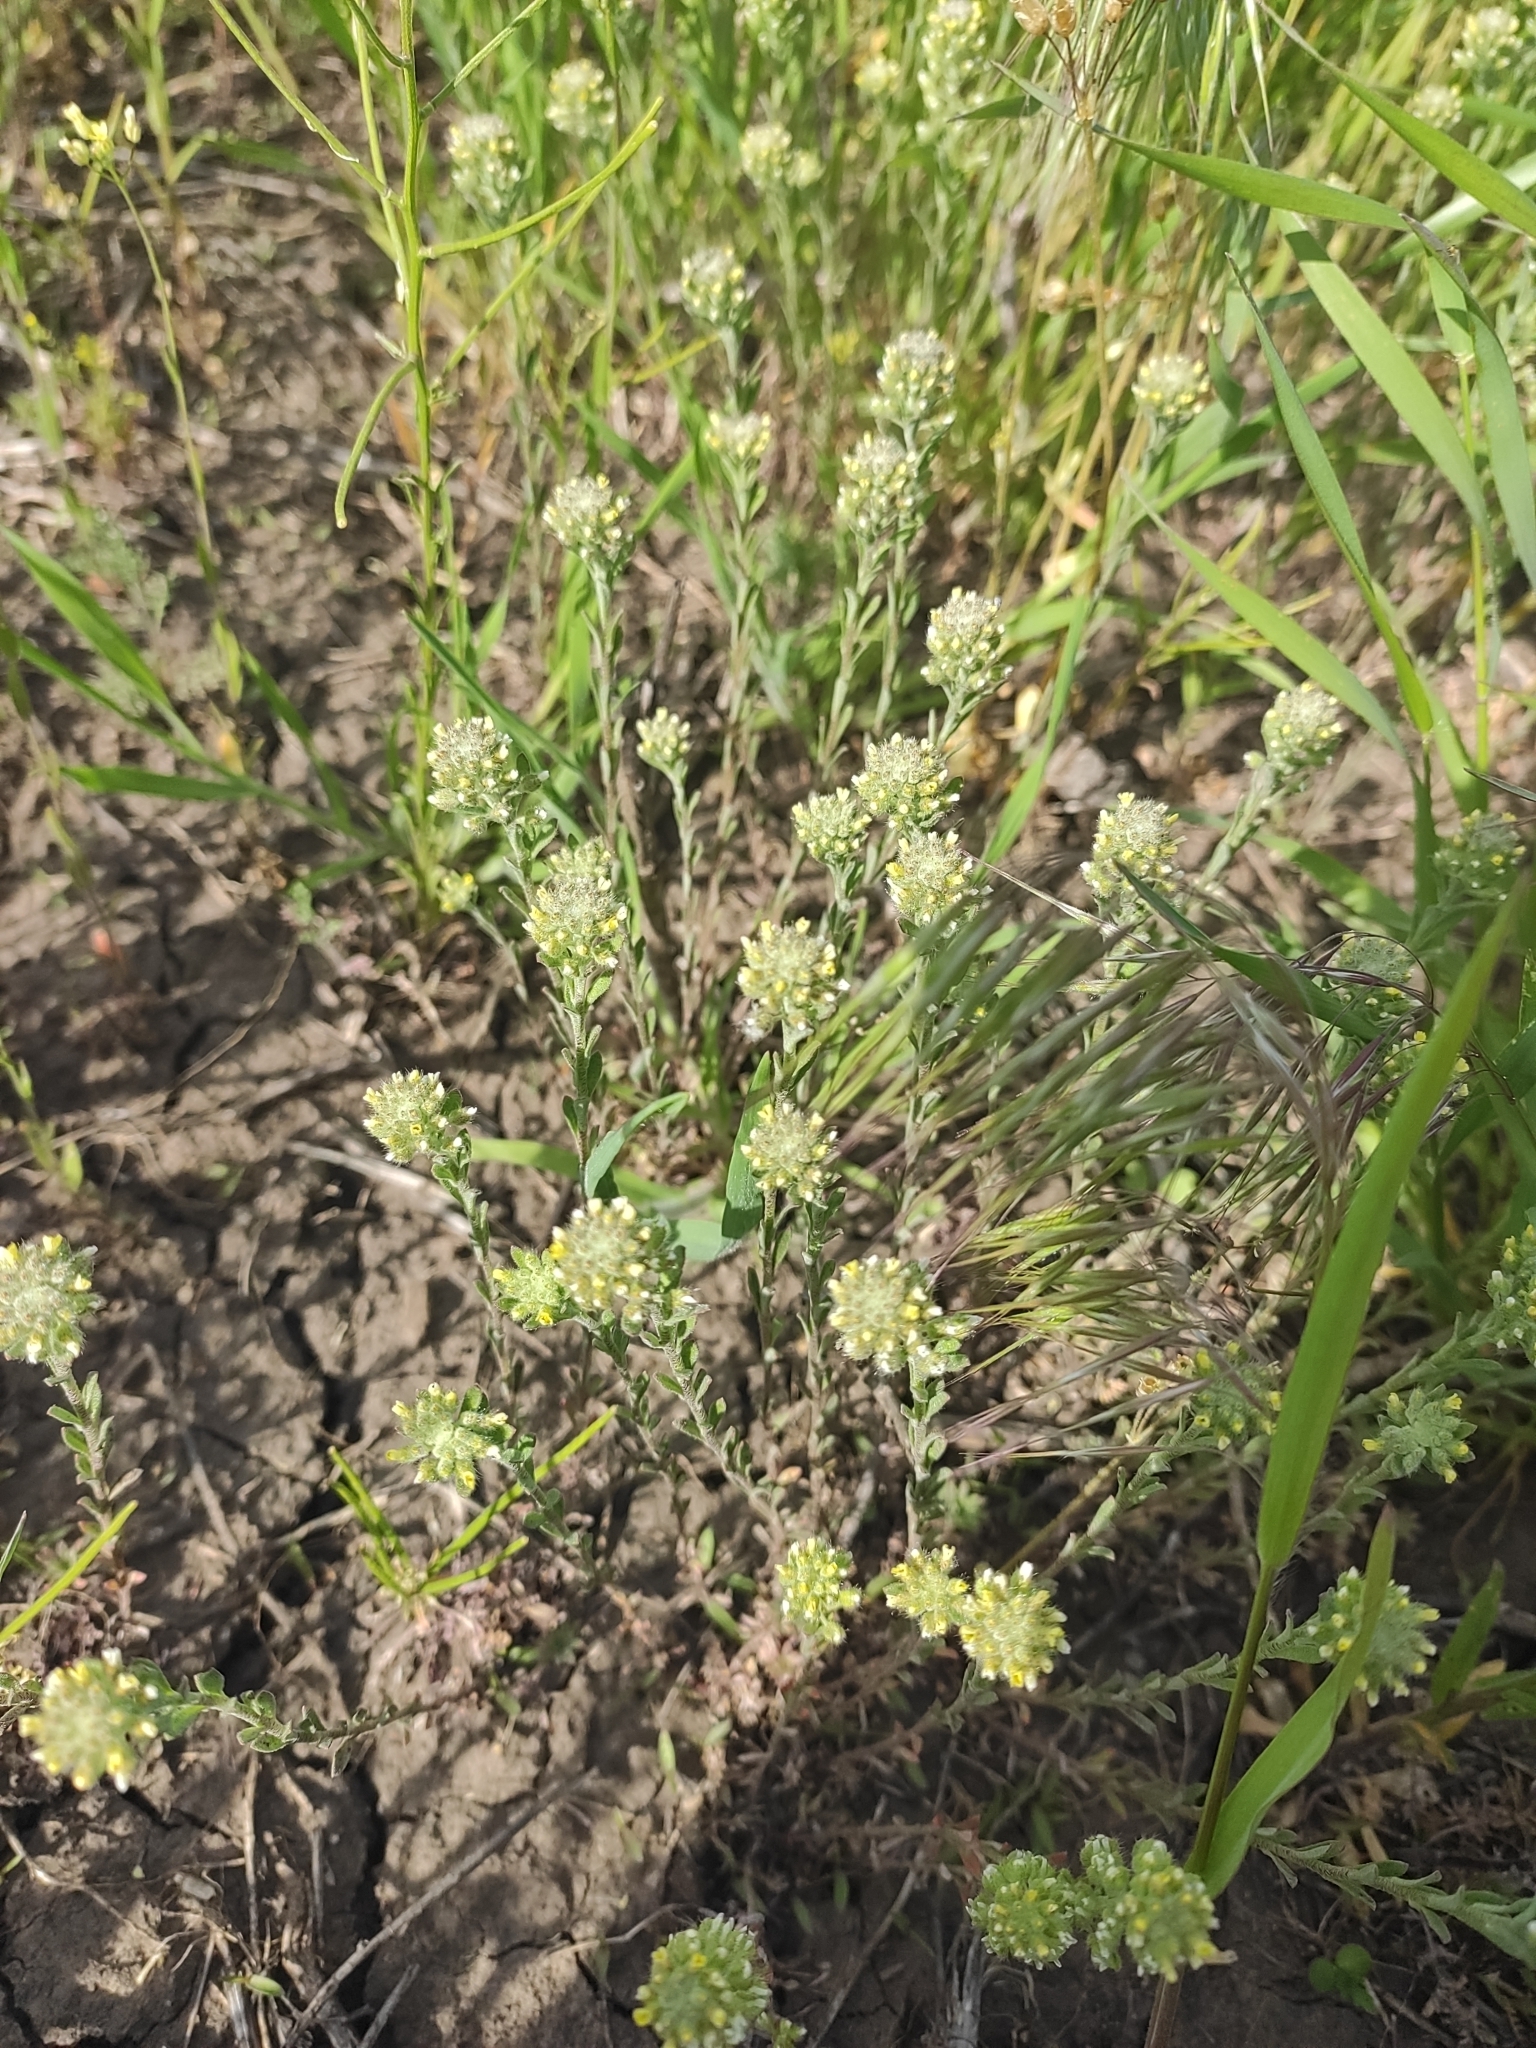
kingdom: Plantae
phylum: Tracheophyta
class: Magnoliopsida
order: Brassicales
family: Brassicaceae
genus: Alyssum
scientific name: Alyssum turkestanicum
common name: Desert alyssum
